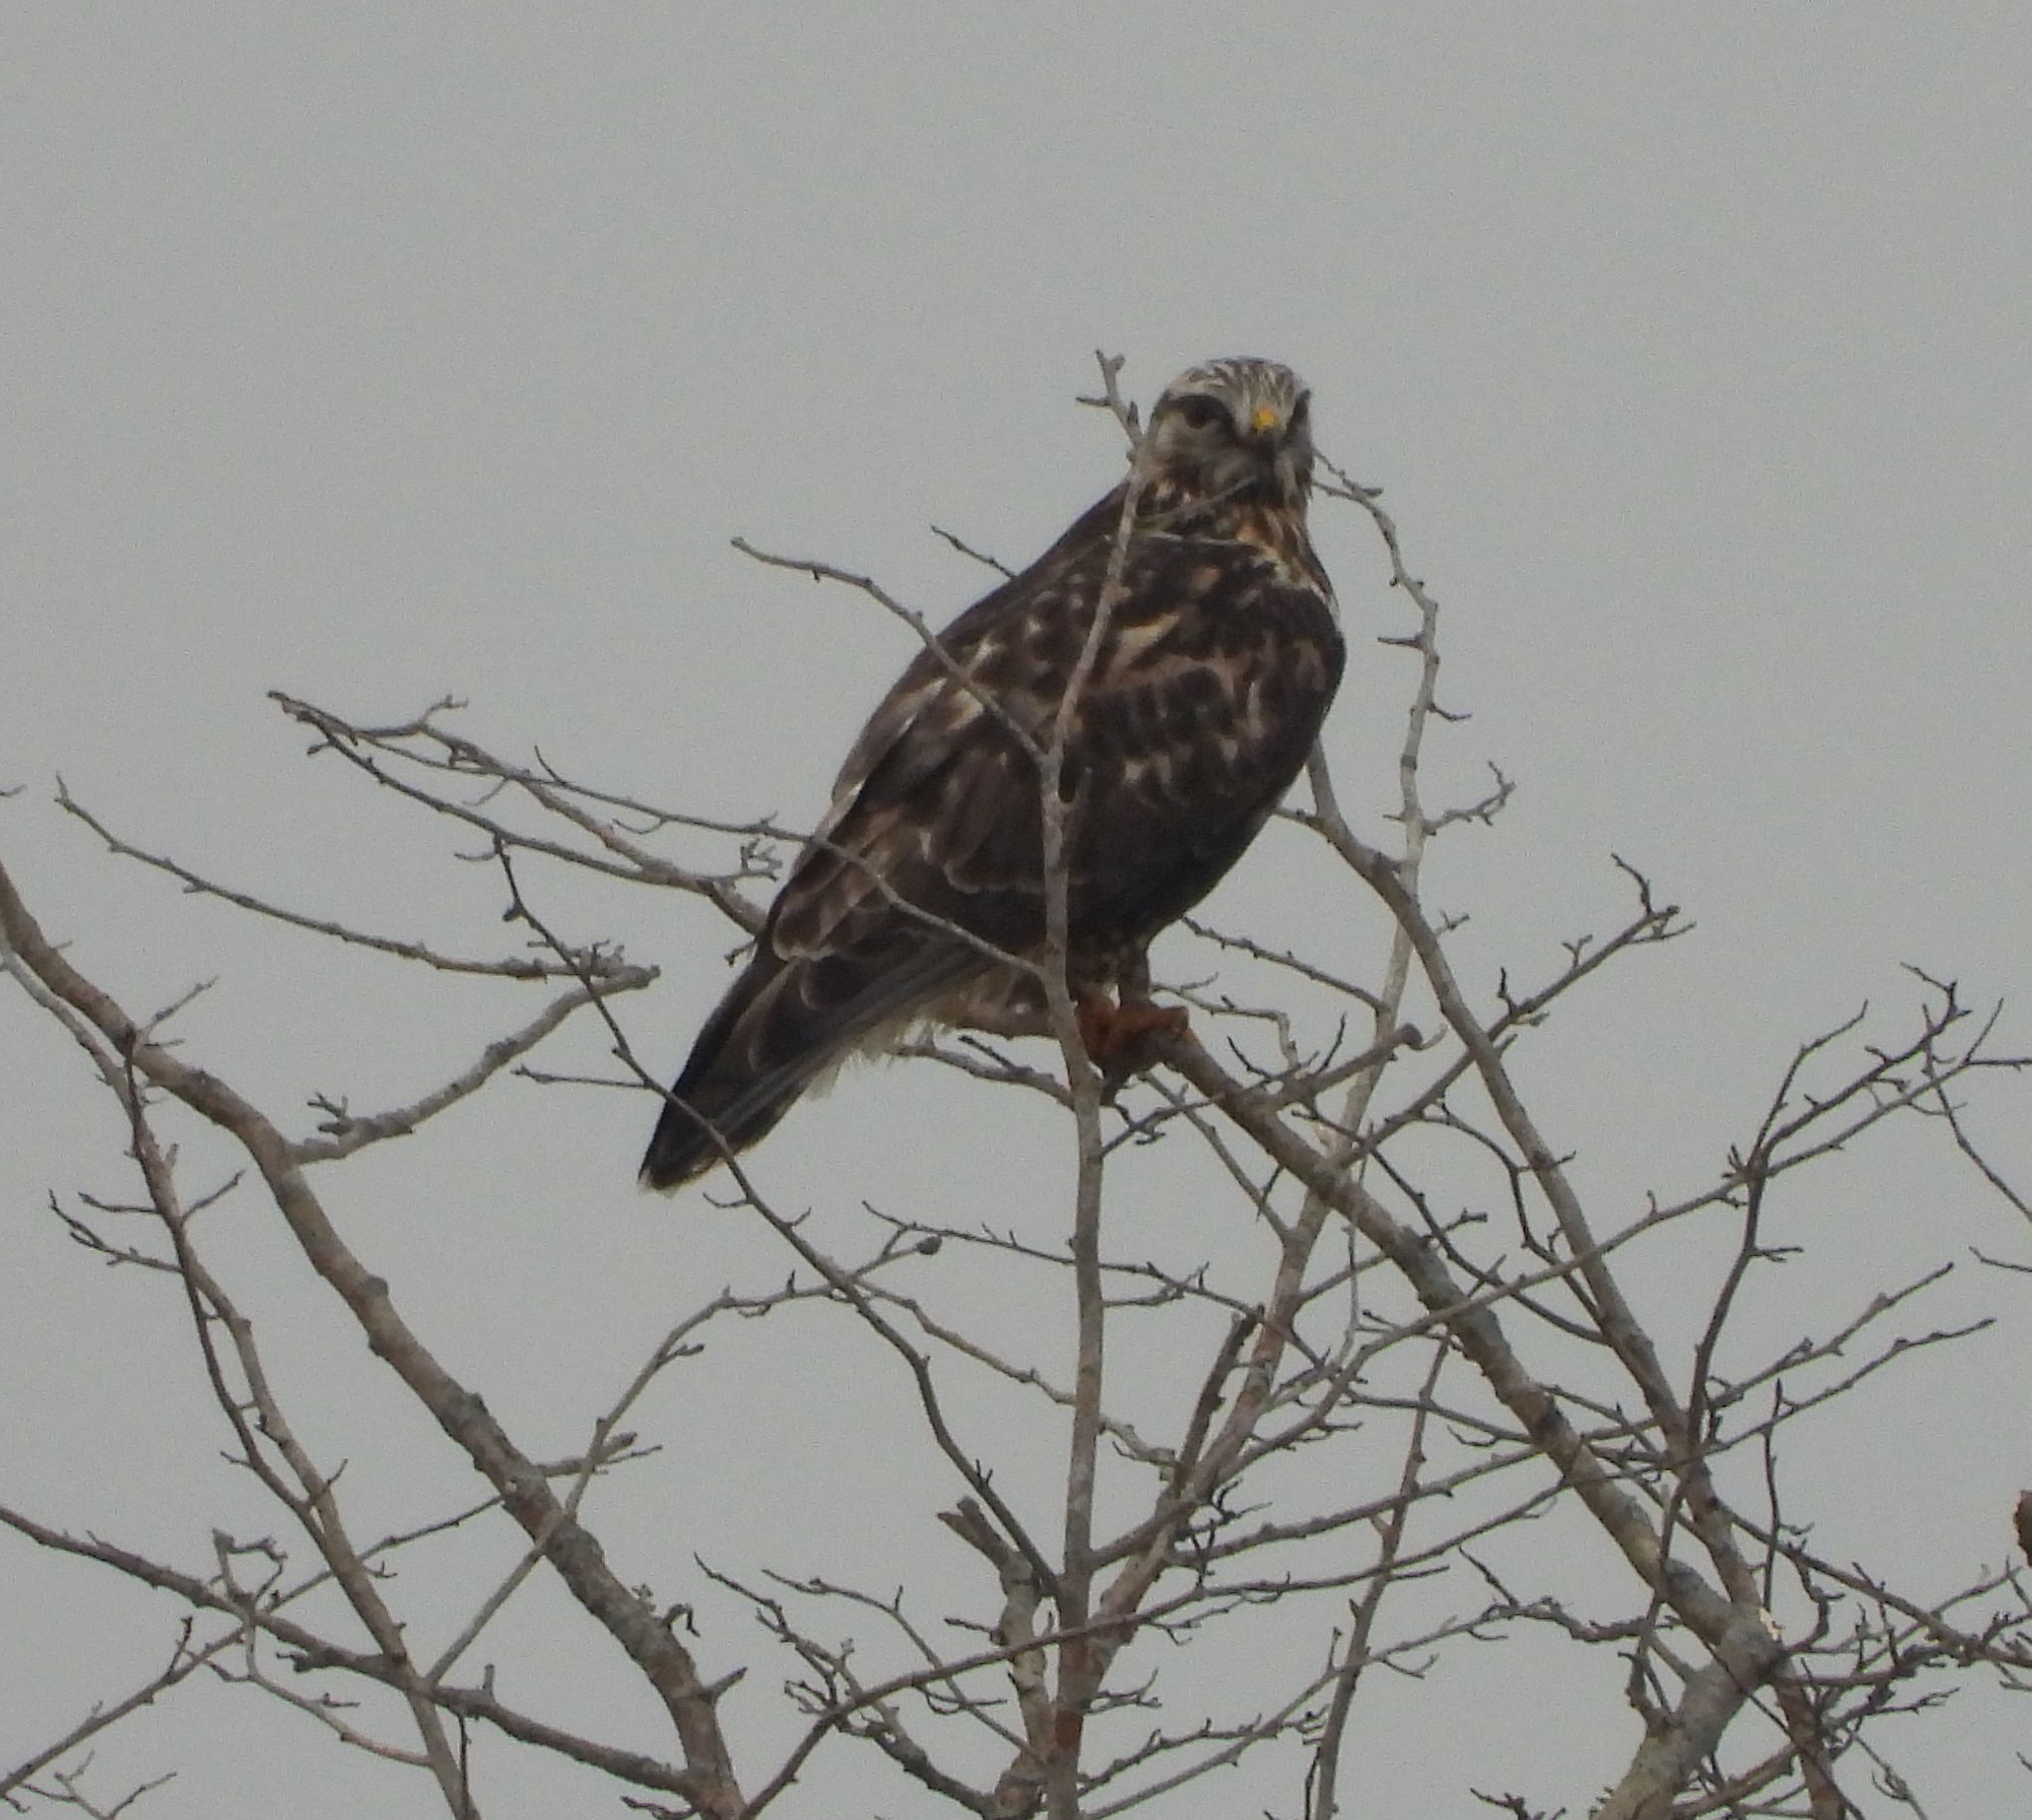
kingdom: Animalia
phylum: Chordata
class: Aves
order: Accipitriformes
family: Accipitridae
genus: Buteo
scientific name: Buteo lagopus
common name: Rough-legged buzzard
